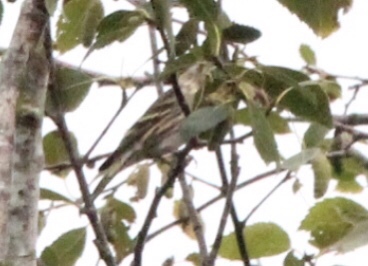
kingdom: Animalia
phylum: Chordata
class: Aves
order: Passeriformes
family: Fringillidae
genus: Spinus
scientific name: Spinus pinus
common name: Pine siskin
